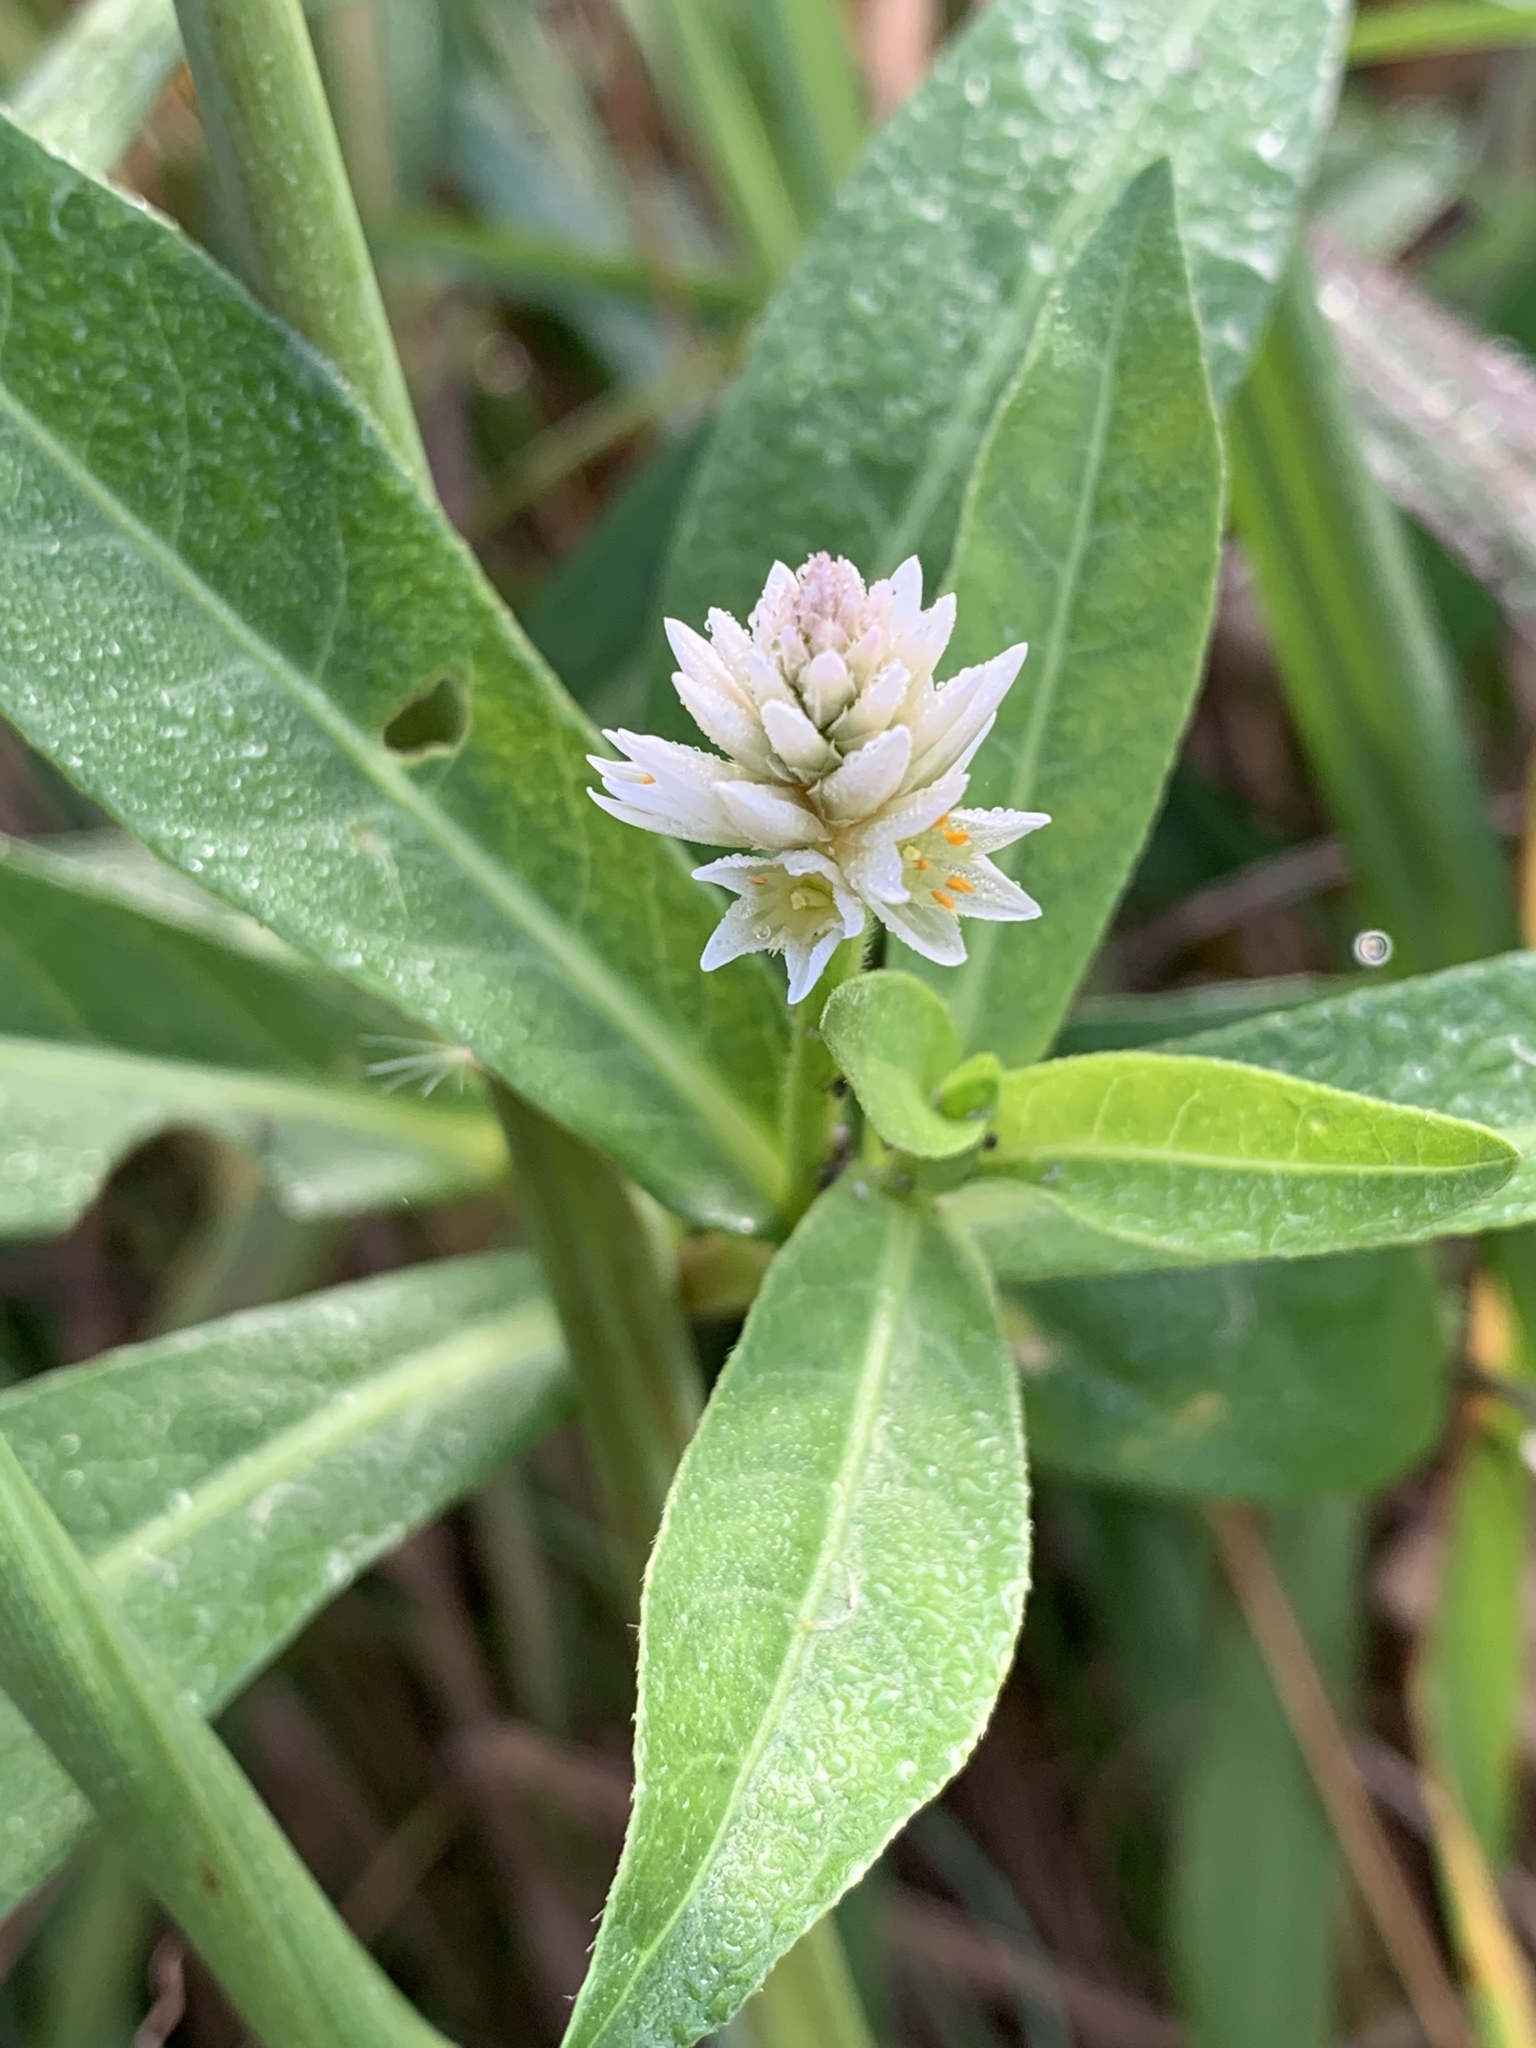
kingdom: Plantae
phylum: Tracheophyta
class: Magnoliopsida
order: Caryophyllales
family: Amaranthaceae
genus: Alternanthera
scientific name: Alternanthera philoxeroides
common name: Alligatorweed
